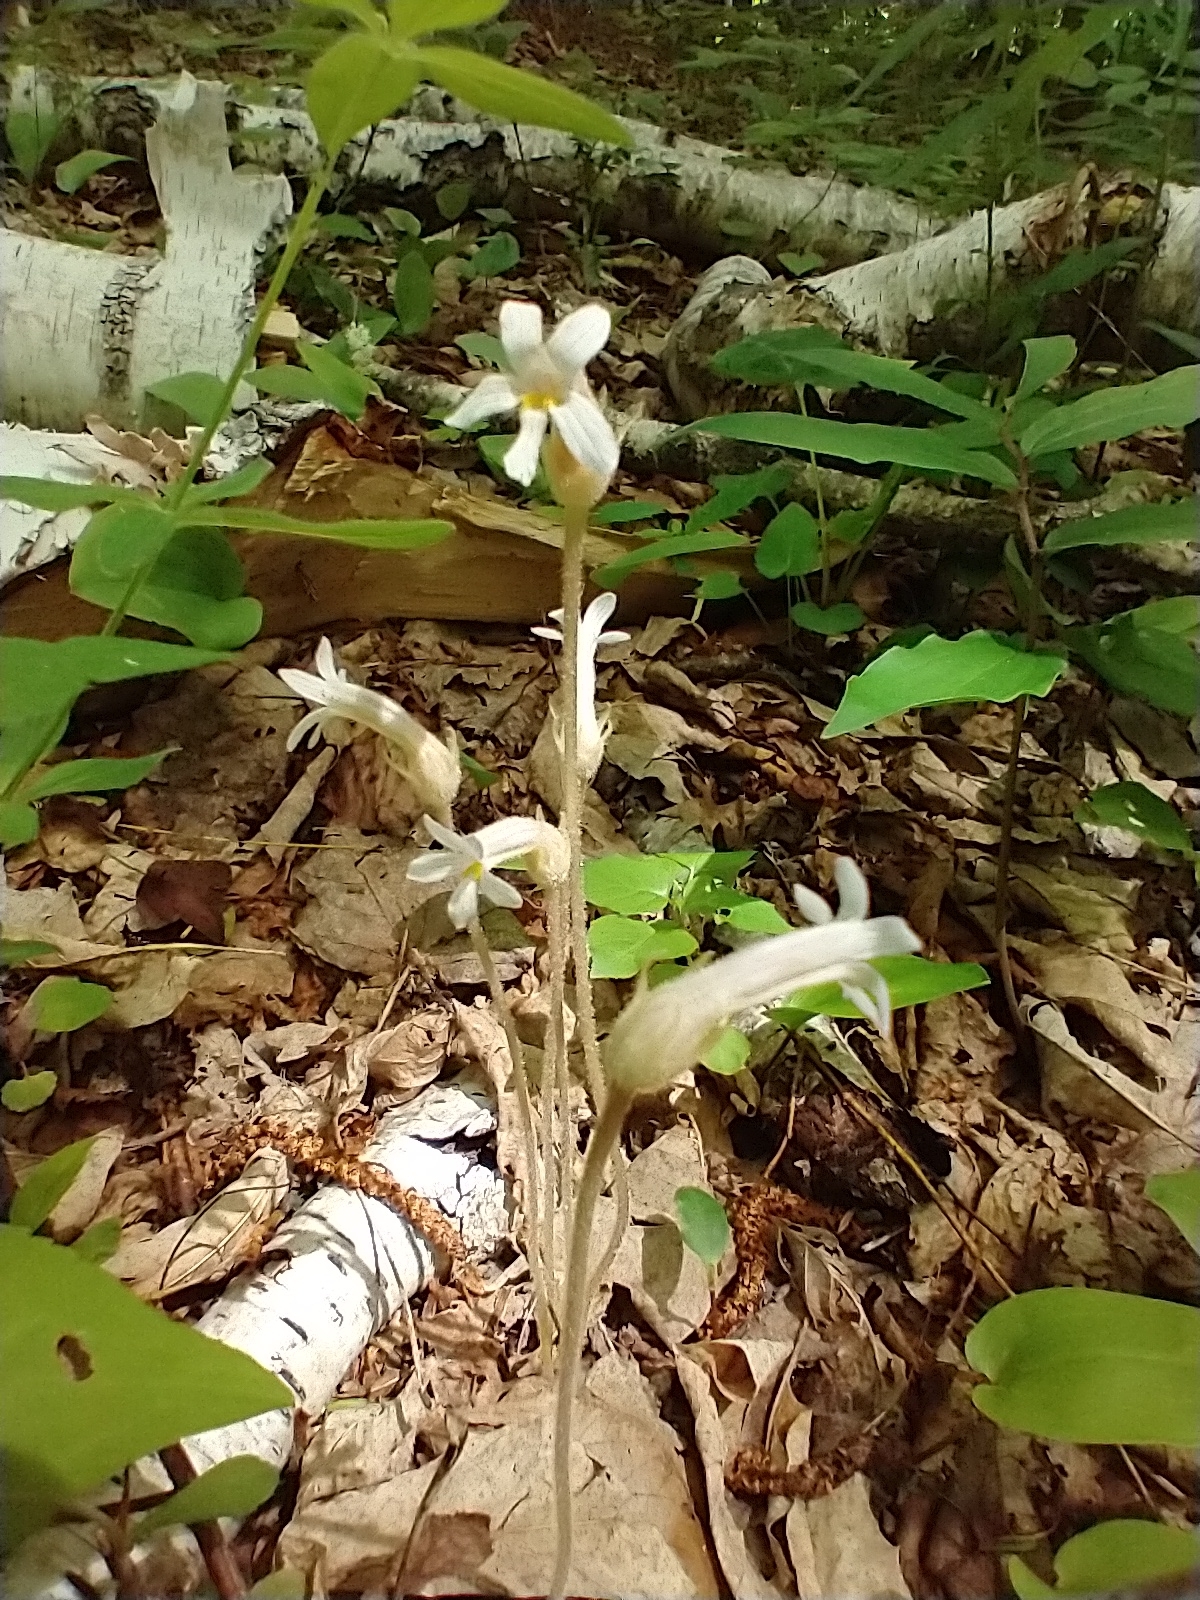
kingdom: Plantae
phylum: Tracheophyta
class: Magnoliopsida
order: Lamiales
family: Orobanchaceae
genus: Aphyllon
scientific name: Aphyllon uniflorum
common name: One-flowered broomrape
